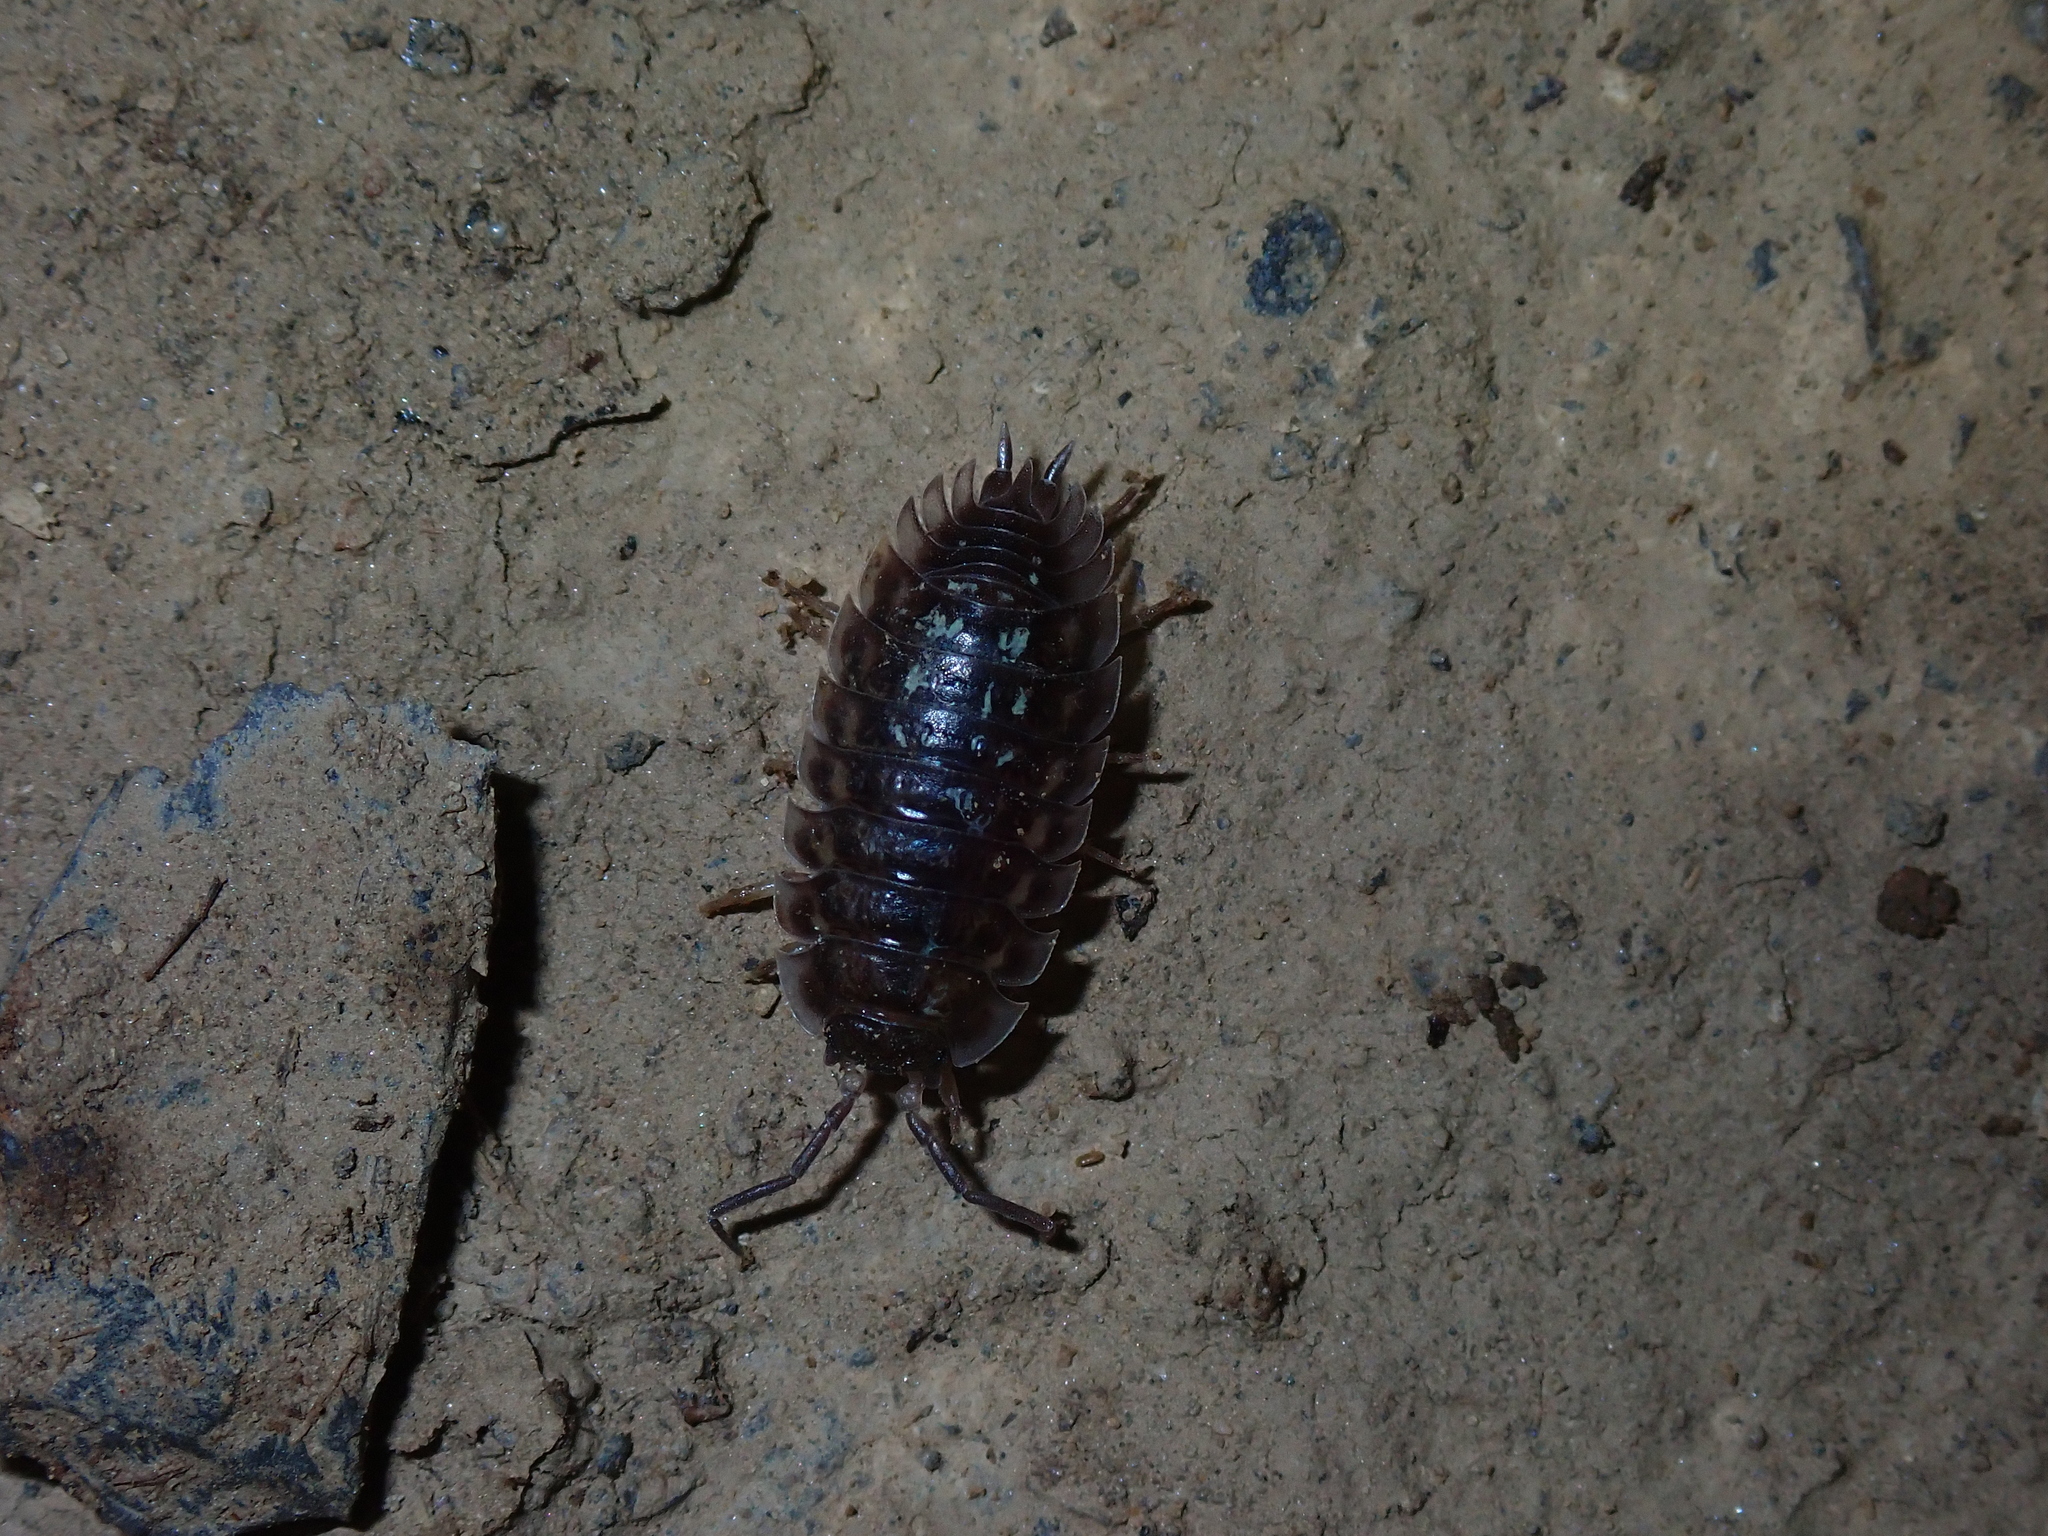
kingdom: Animalia
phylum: Arthropoda
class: Malacostraca
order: Isopoda
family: Oniscidae
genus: Oniscus
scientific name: Oniscus asellus
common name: Common shiny woodlouse
